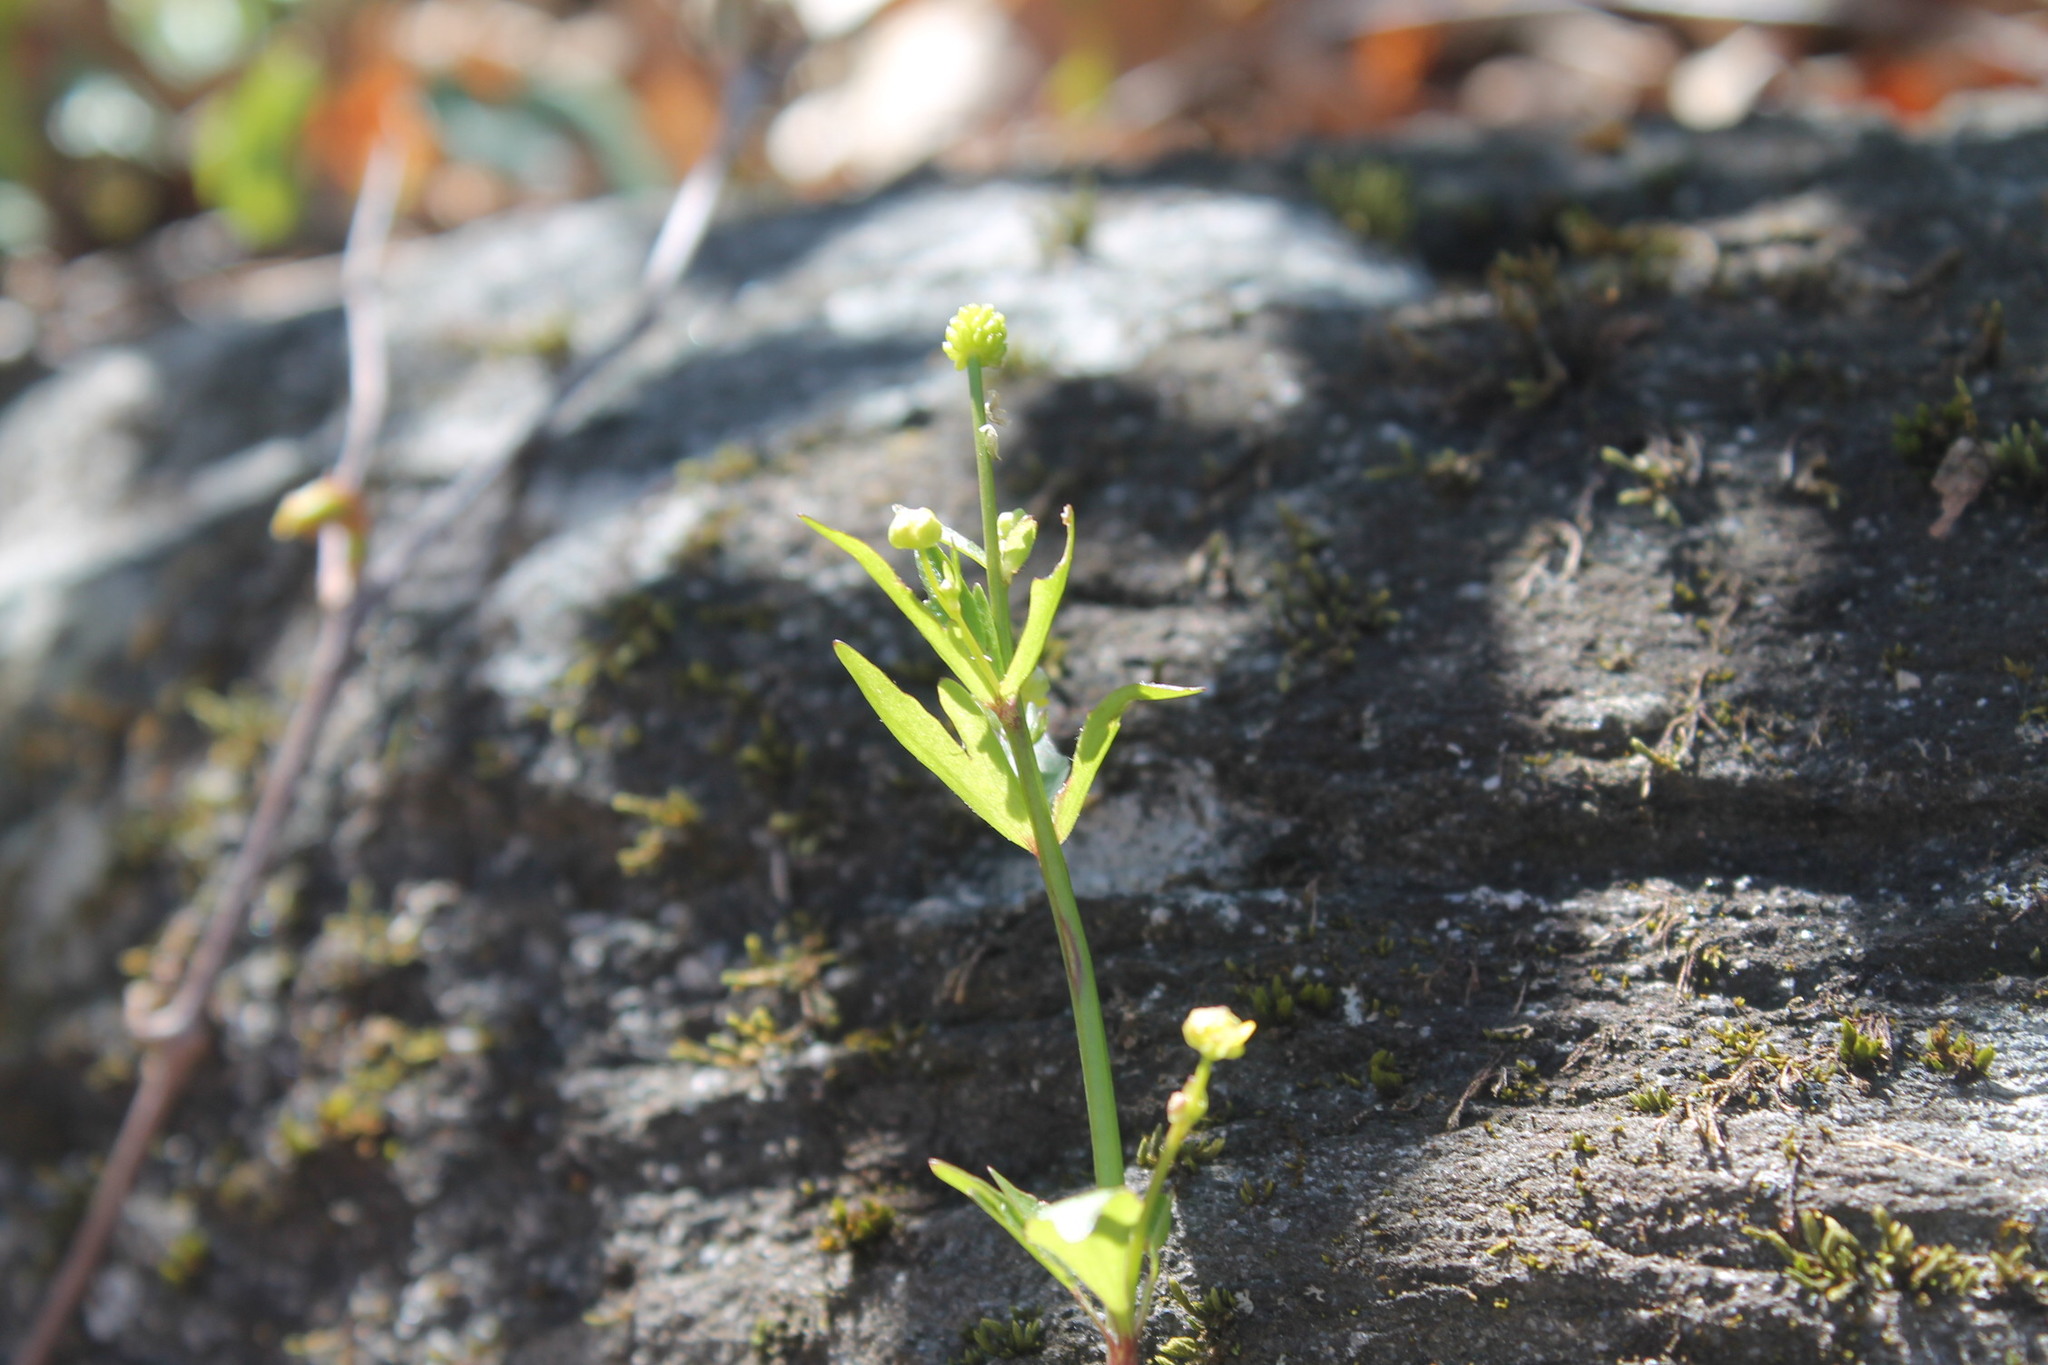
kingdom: Plantae
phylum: Tracheophyta
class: Magnoliopsida
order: Ranunculales
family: Ranunculaceae
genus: Ranunculus
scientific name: Ranunculus abortivus
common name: Early wood buttercup
